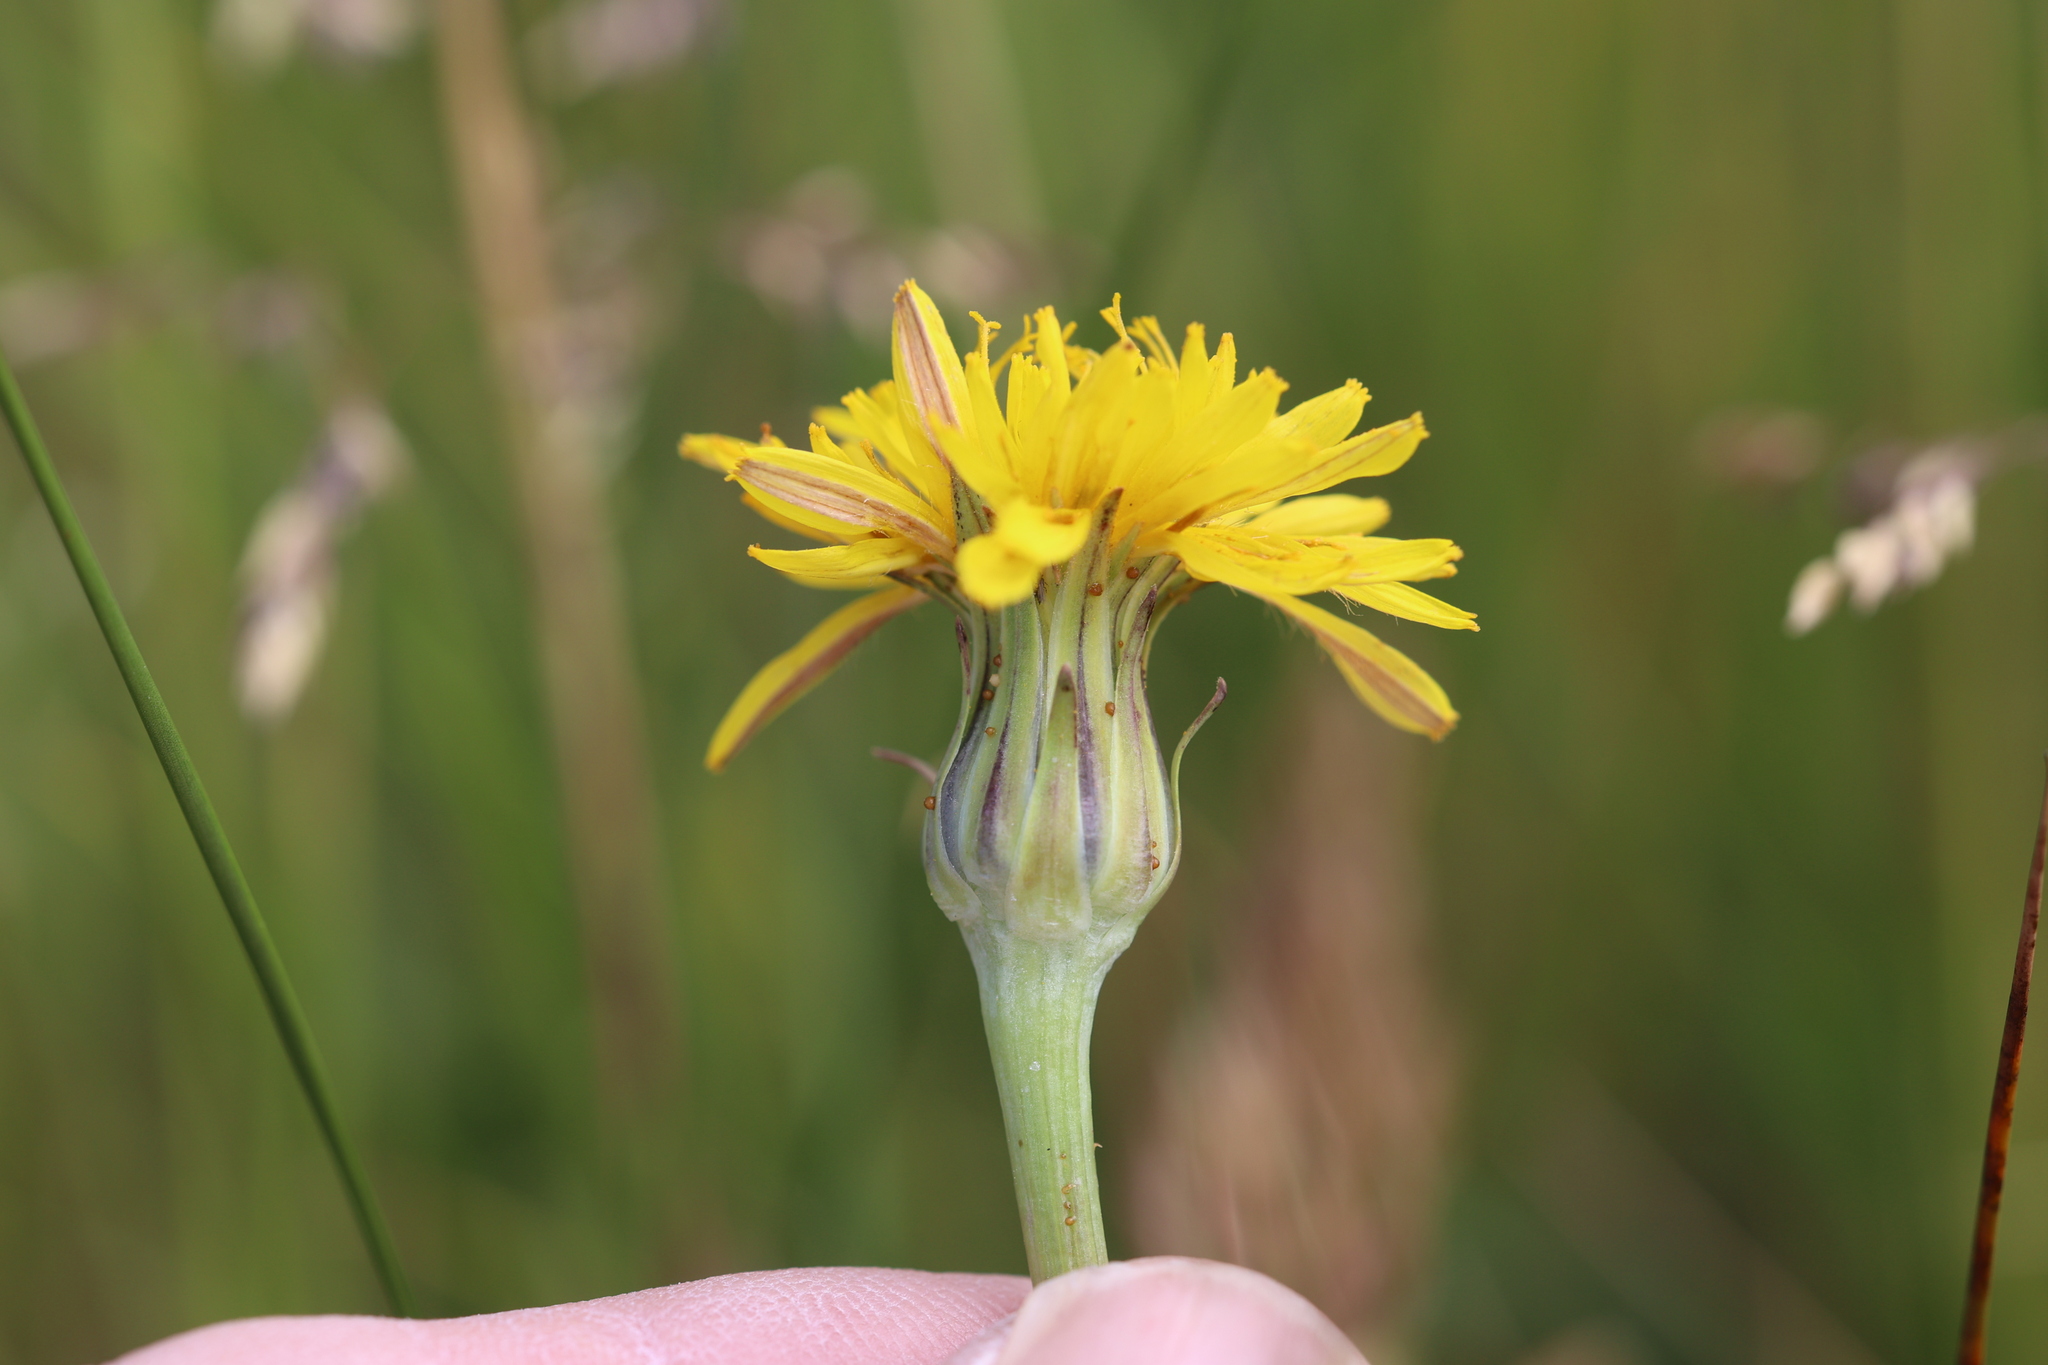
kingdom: Plantae
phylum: Tracheophyta
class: Magnoliopsida
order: Asterales
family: Asteraceae
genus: Agoseris
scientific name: Agoseris glauca
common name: Prairie agoseris
